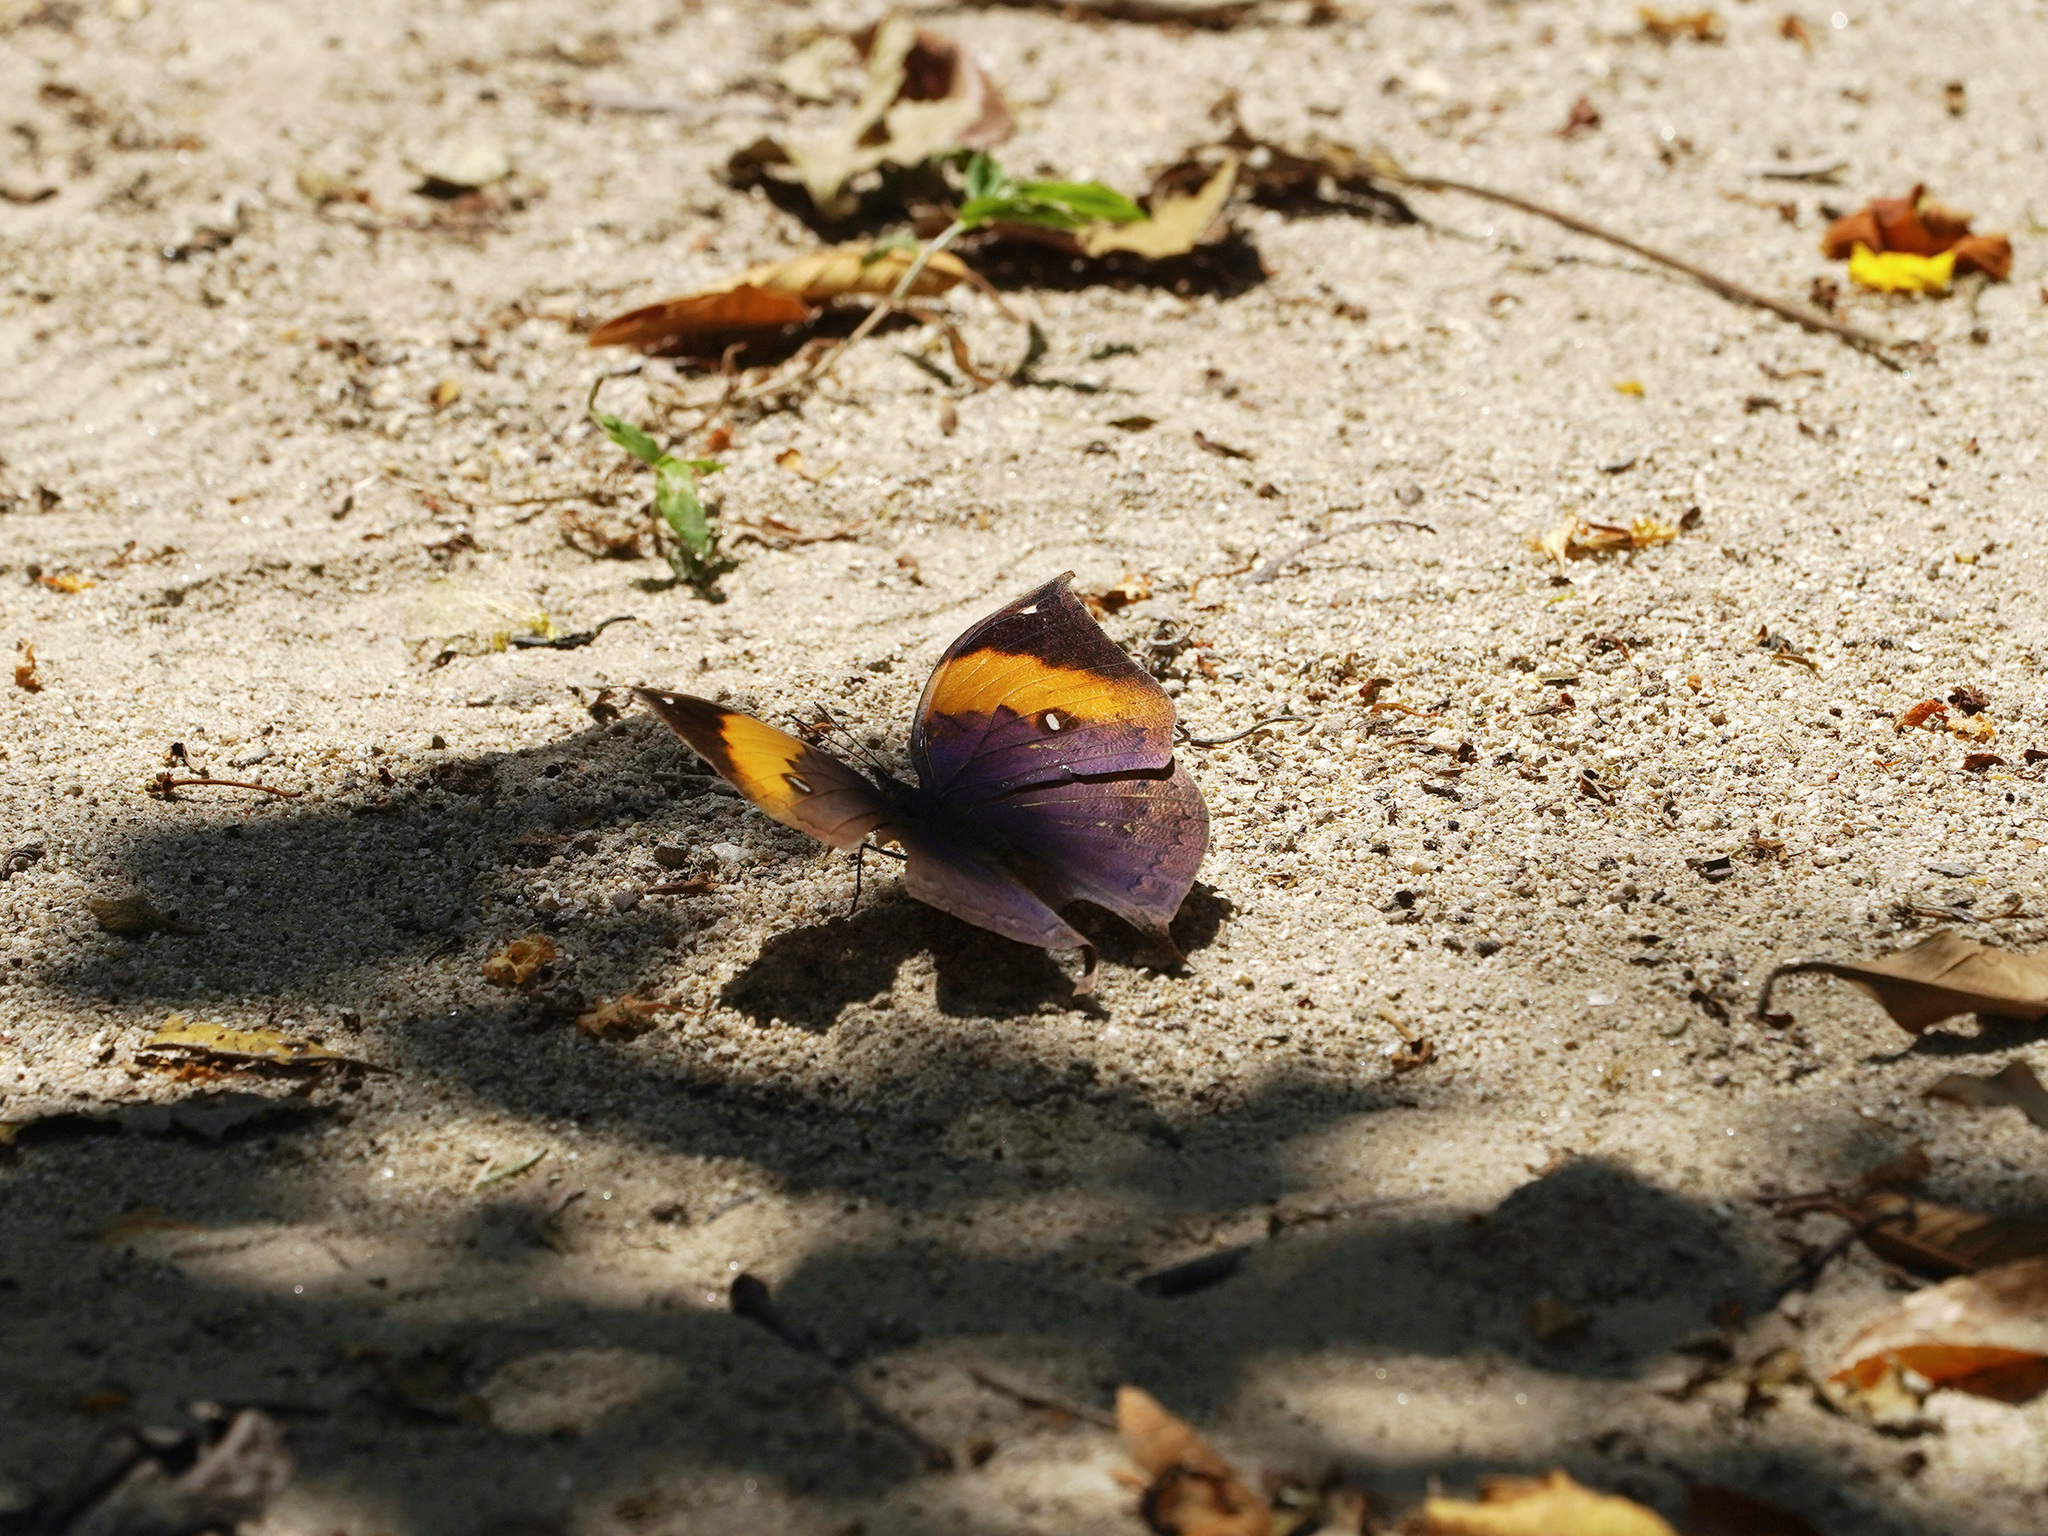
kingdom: Animalia
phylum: Arthropoda
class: Insecta
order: Lepidoptera
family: Nymphalidae
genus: Kallima
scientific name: Kallima inachus
